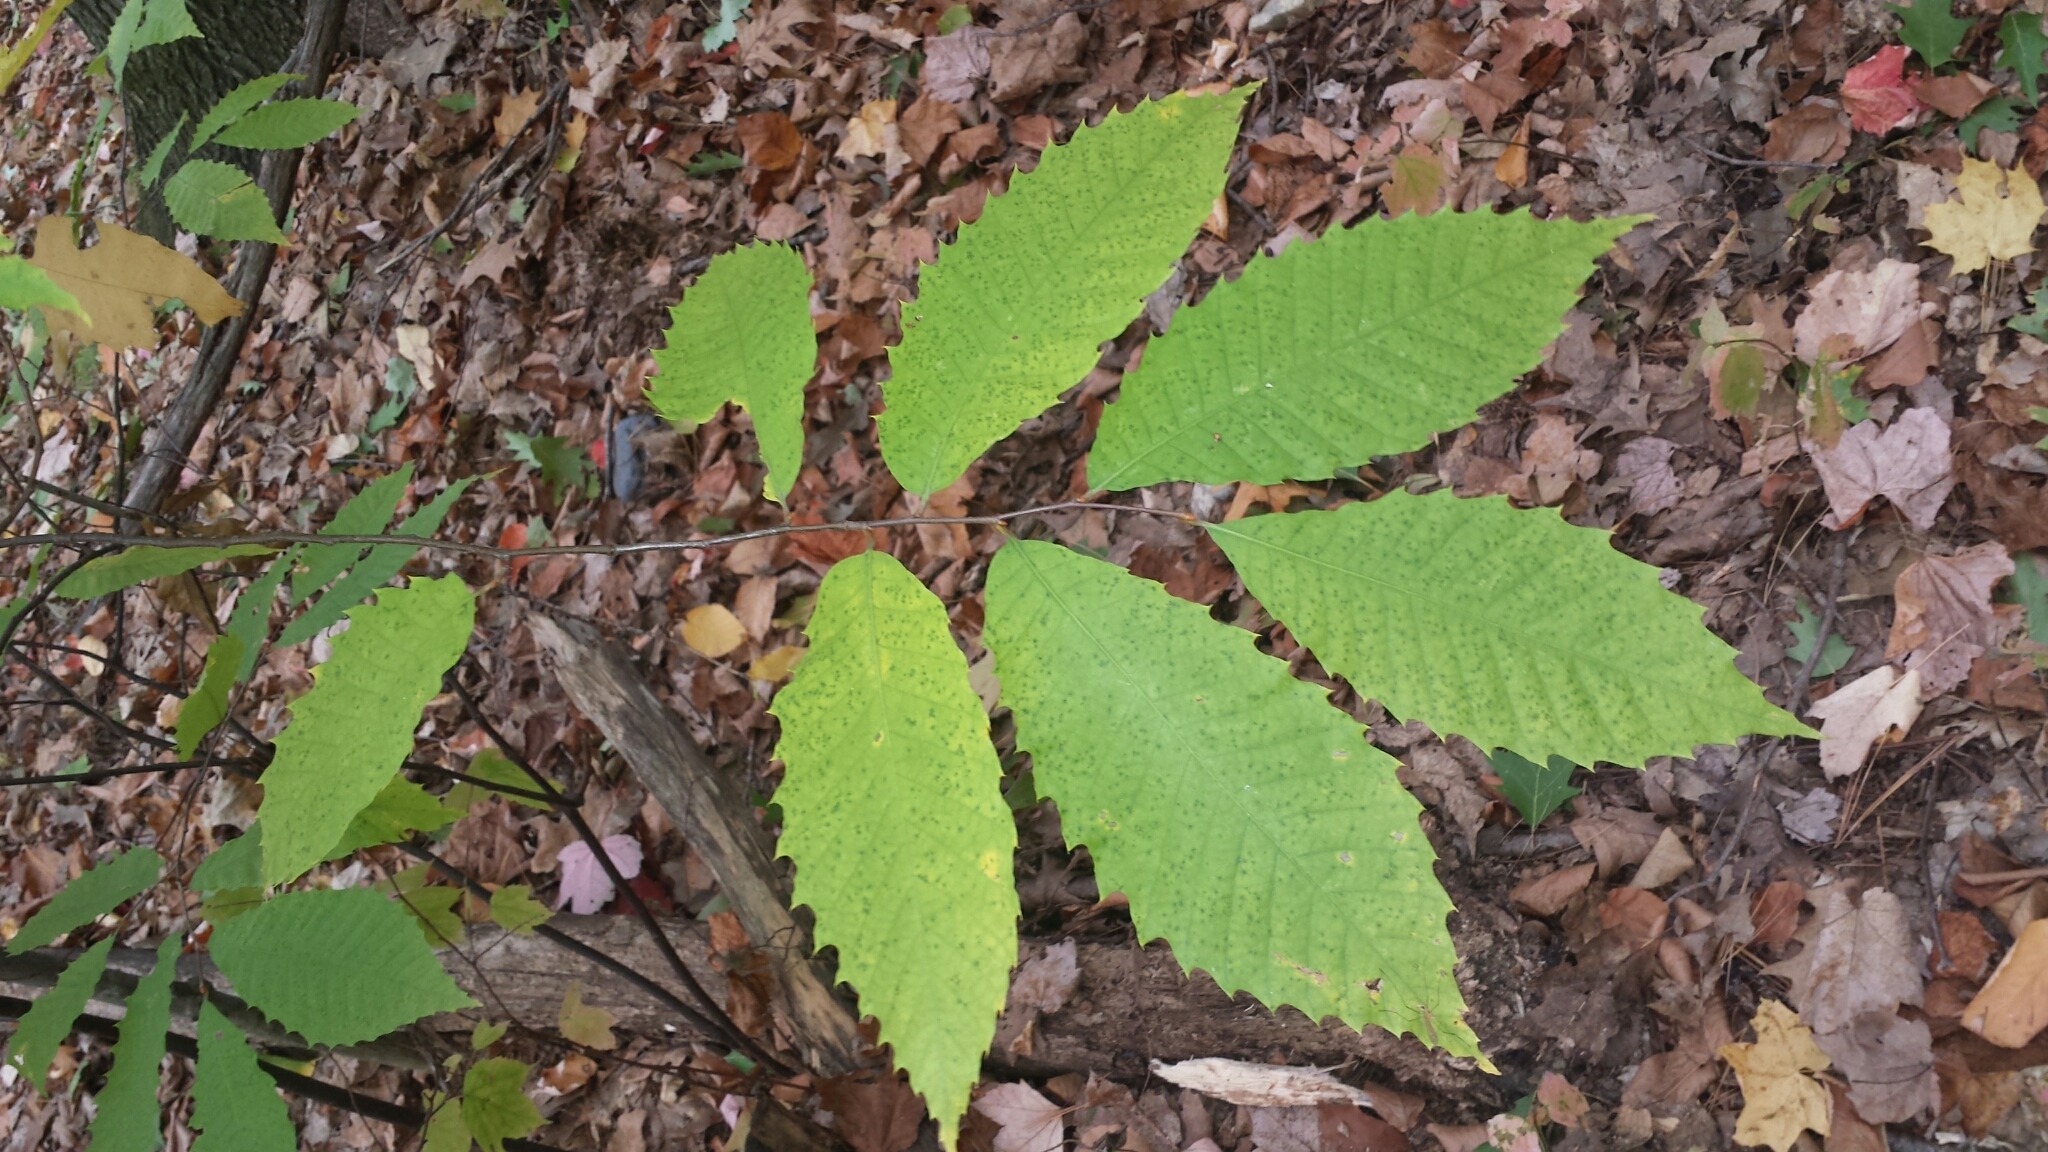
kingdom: Plantae
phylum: Tracheophyta
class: Magnoliopsida
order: Fagales
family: Fagaceae
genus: Castanea
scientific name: Castanea dentata
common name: American chestnut
